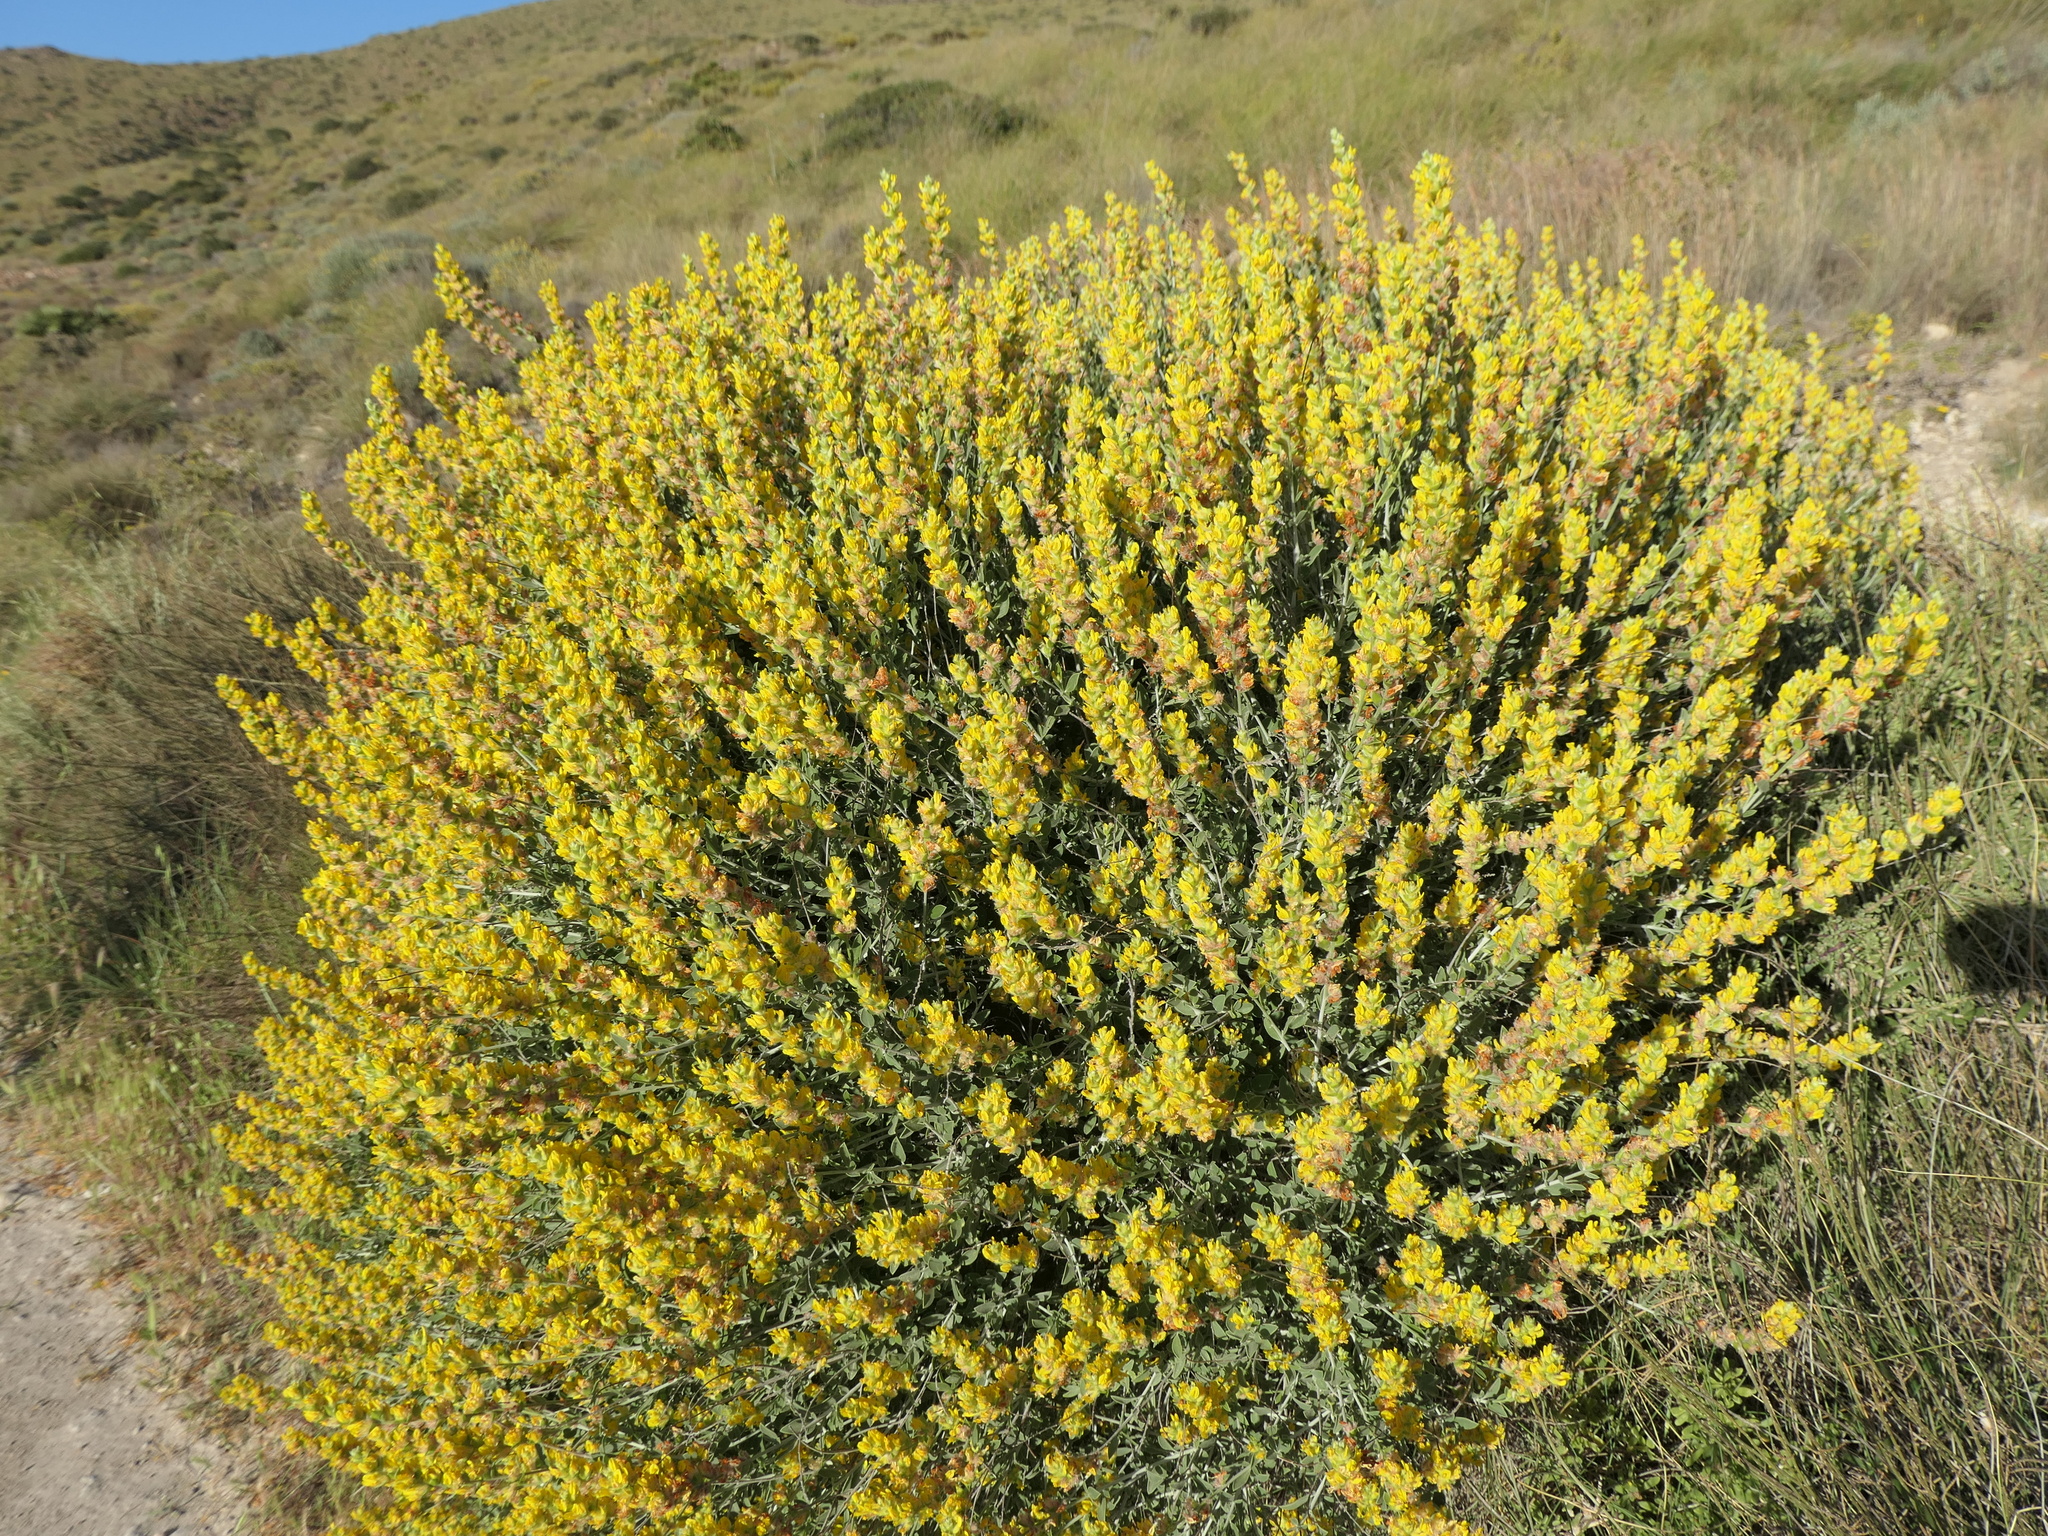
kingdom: Plantae
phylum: Tracheophyta
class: Magnoliopsida
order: Fabales
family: Fabaceae
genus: Anthyllis
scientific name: Anthyllis cytisoides
